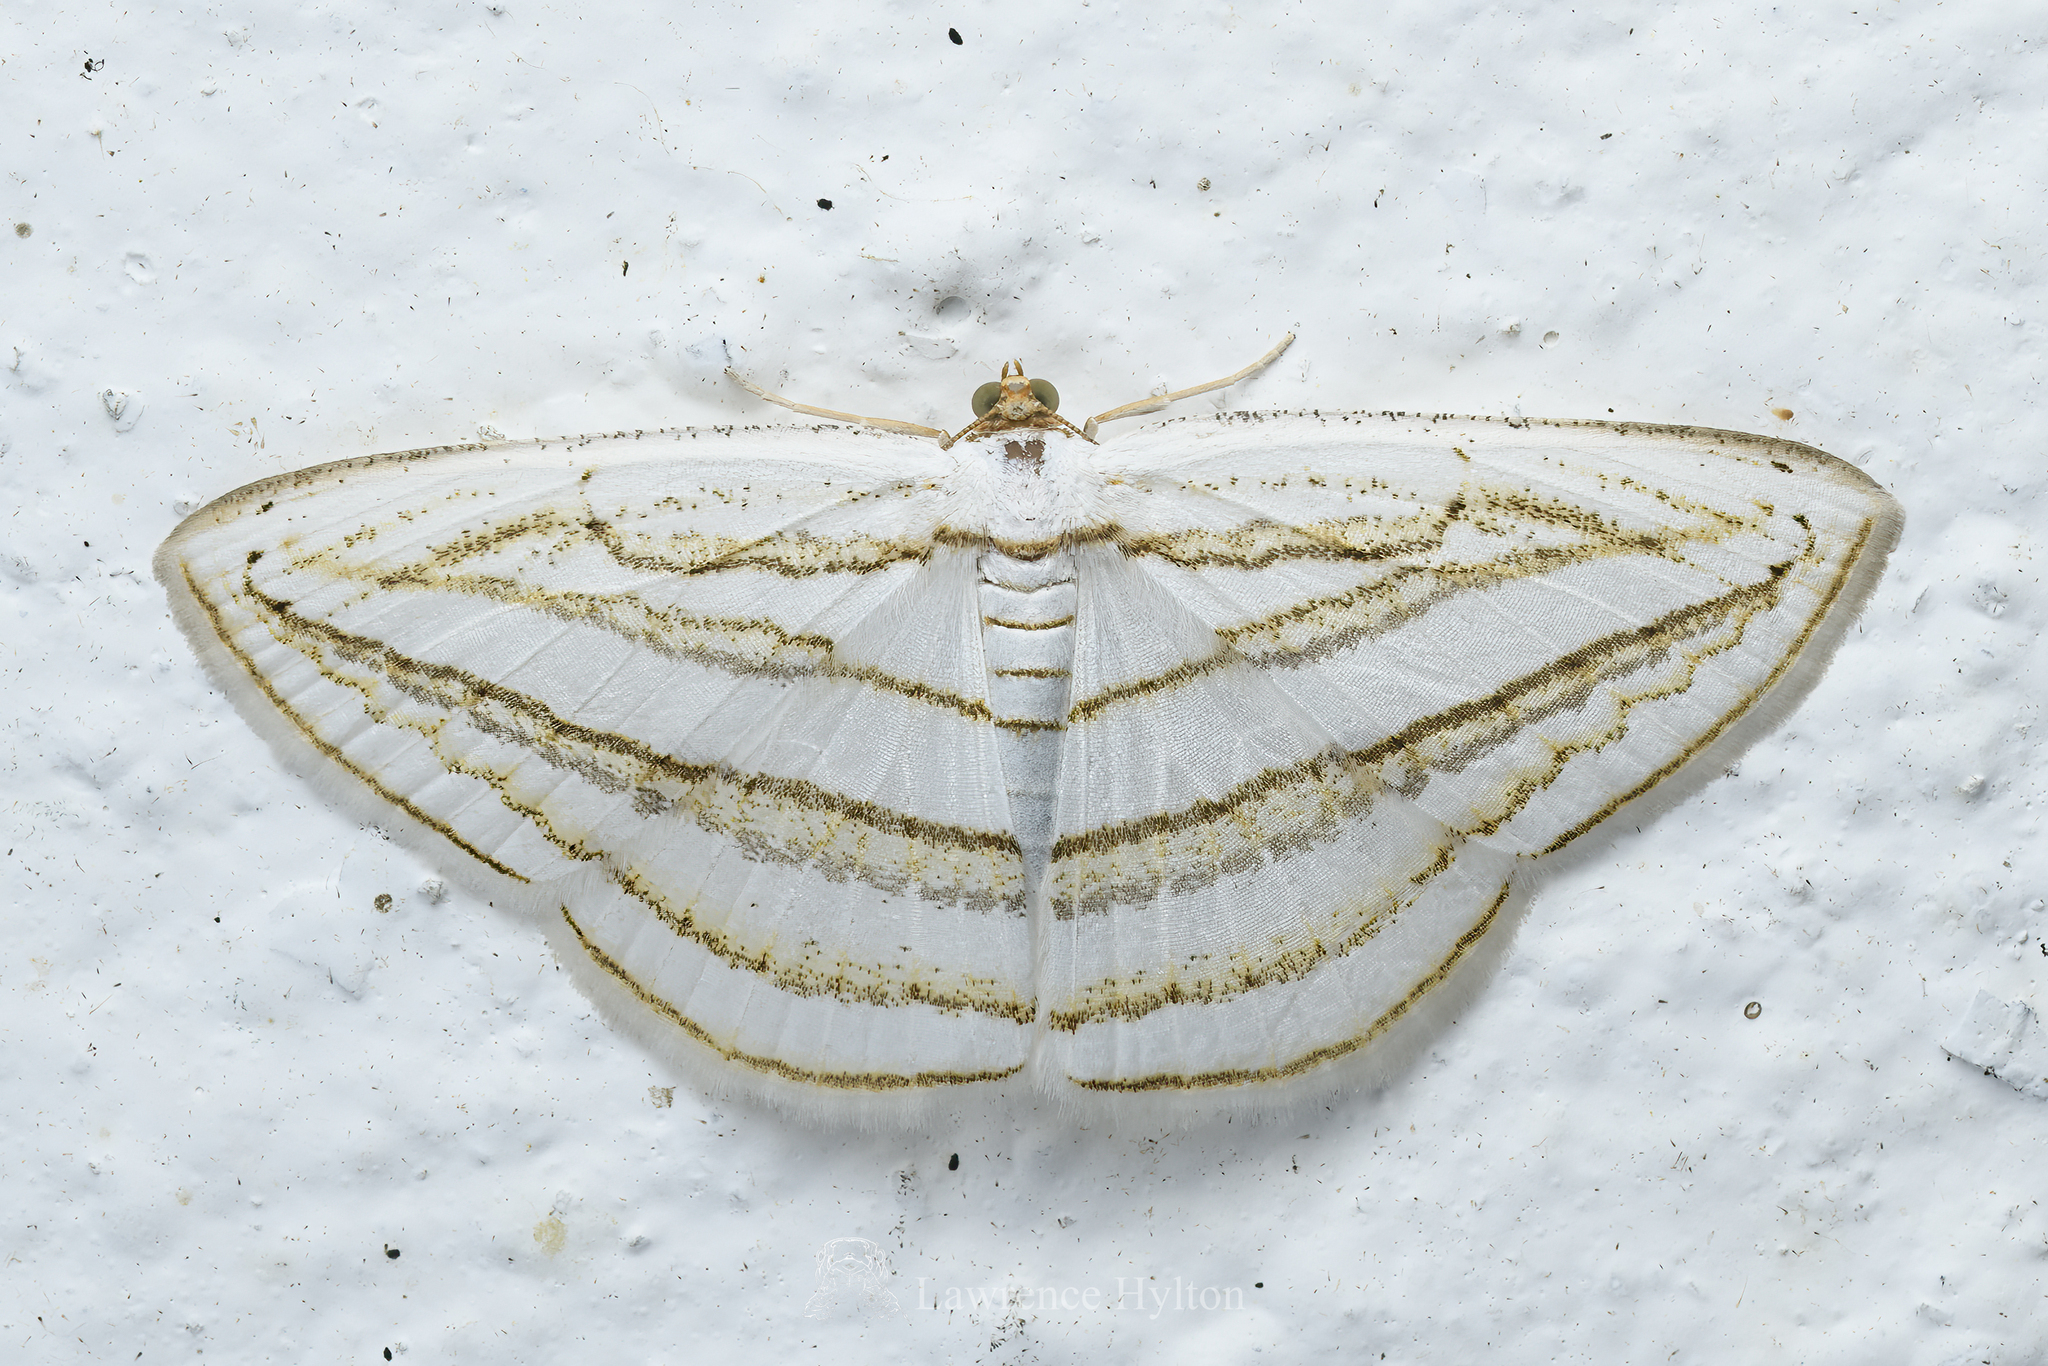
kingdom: Animalia
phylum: Arthropoda
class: Insecta
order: Lepidoptera
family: Geometridae
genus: Orthocabera
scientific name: Orthocabera sericea
